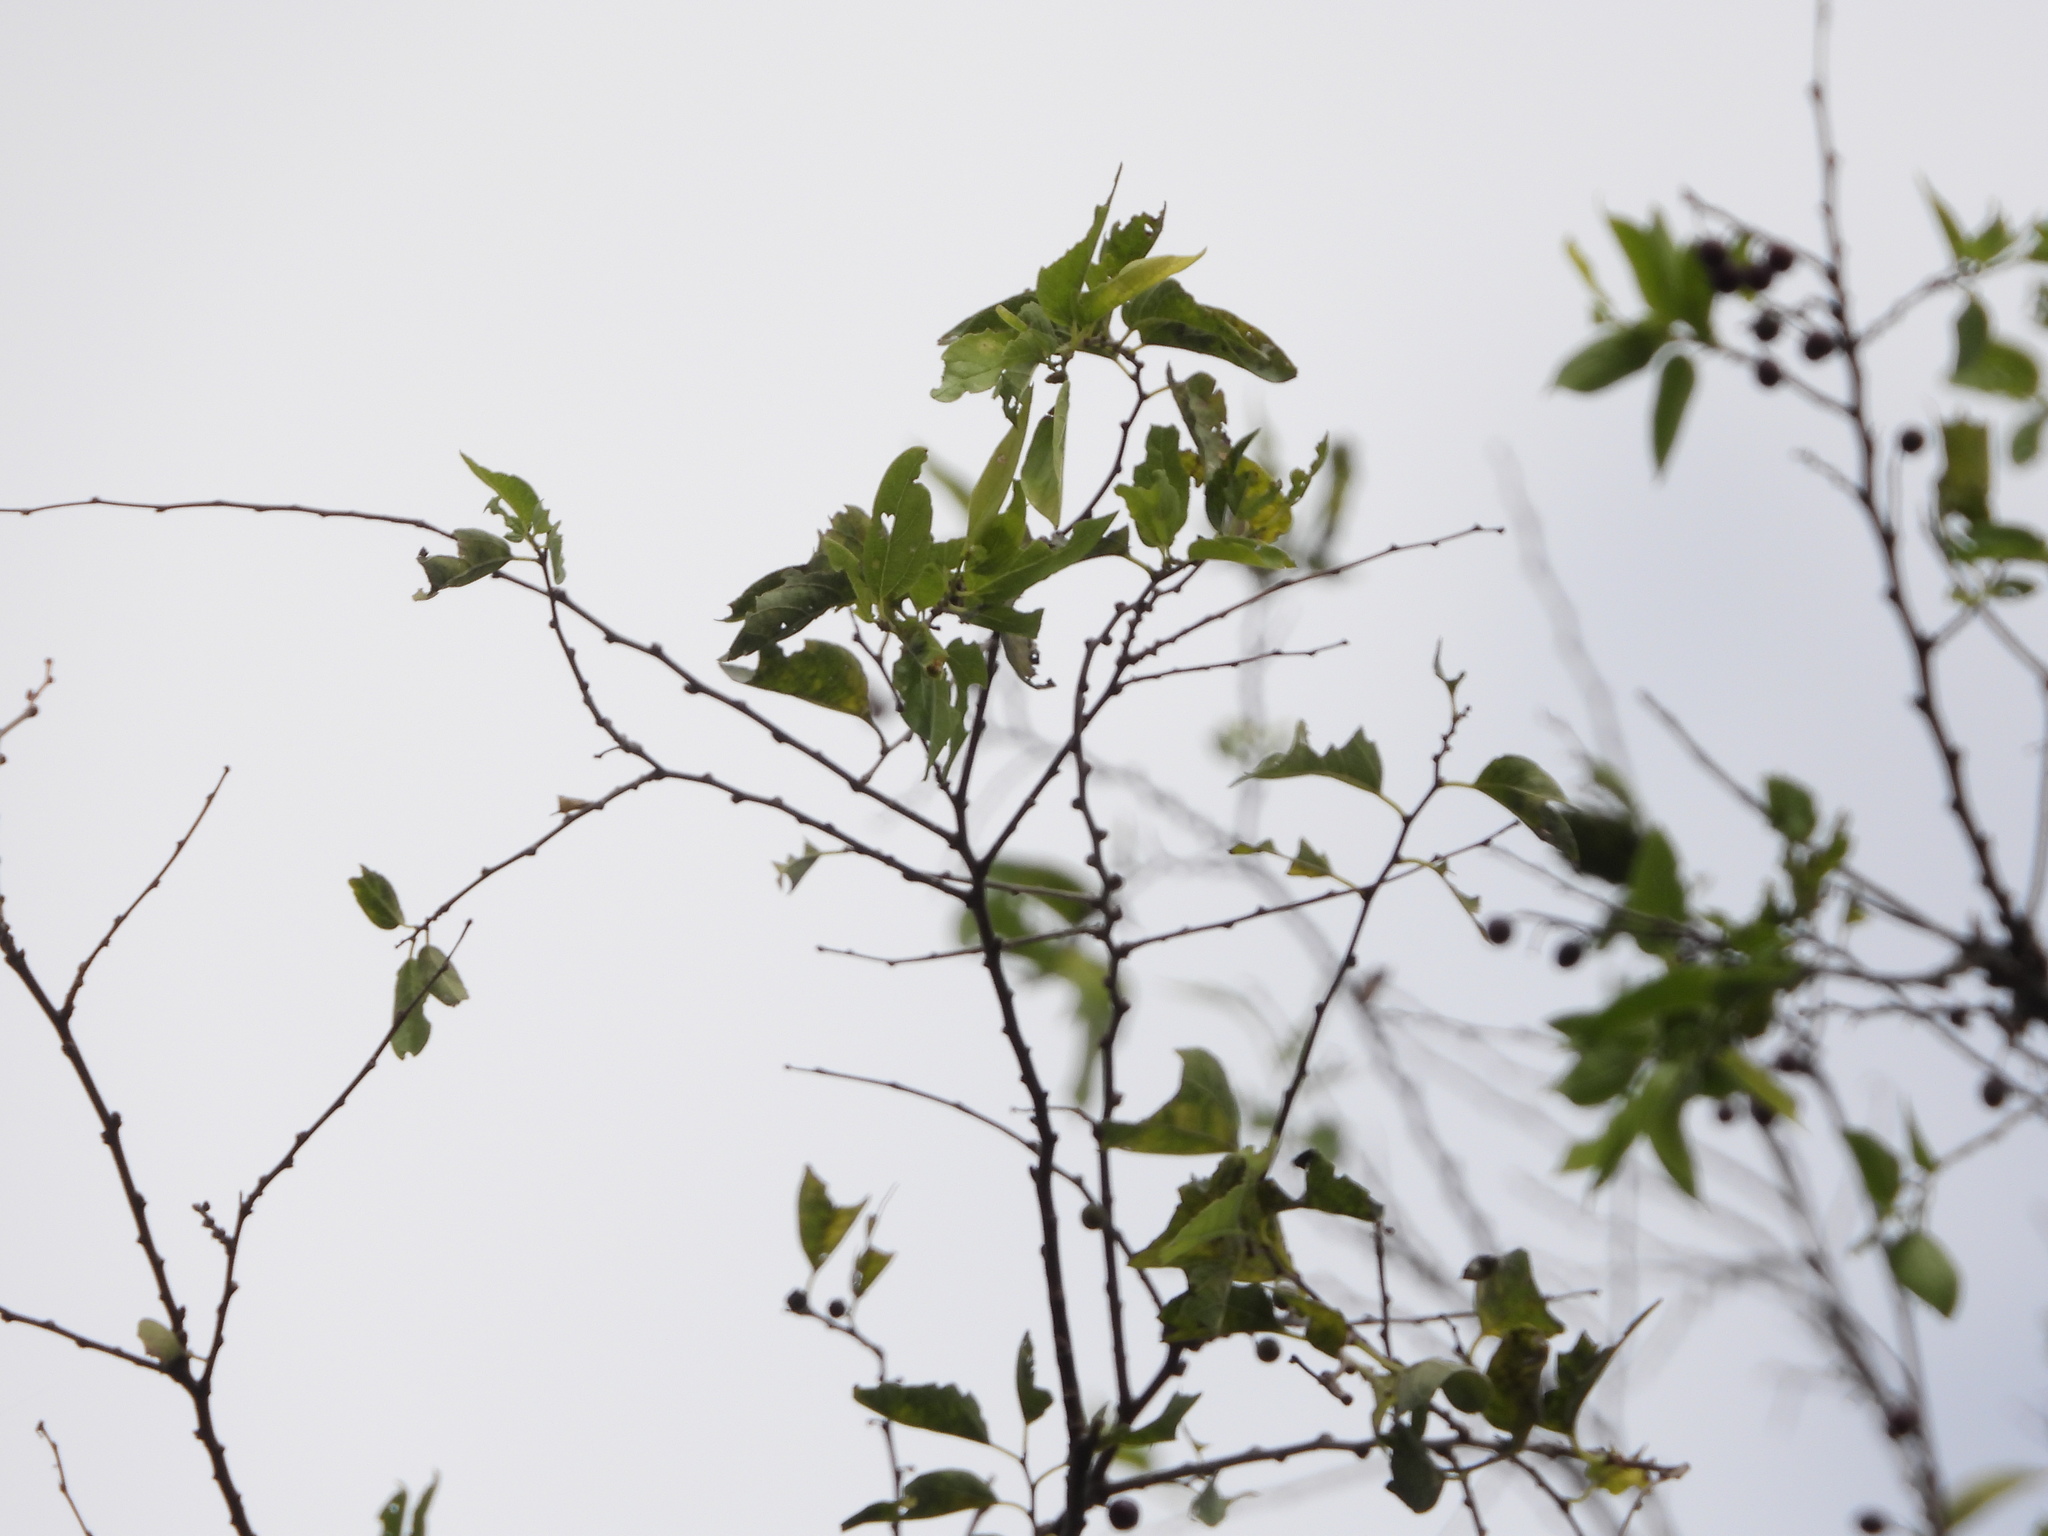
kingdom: Plantae
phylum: Tracheophyta
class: Magnoliopsida
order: Rosales
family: Cannabaceae
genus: Celtis
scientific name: Celtis laevigata
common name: Sugarberry
